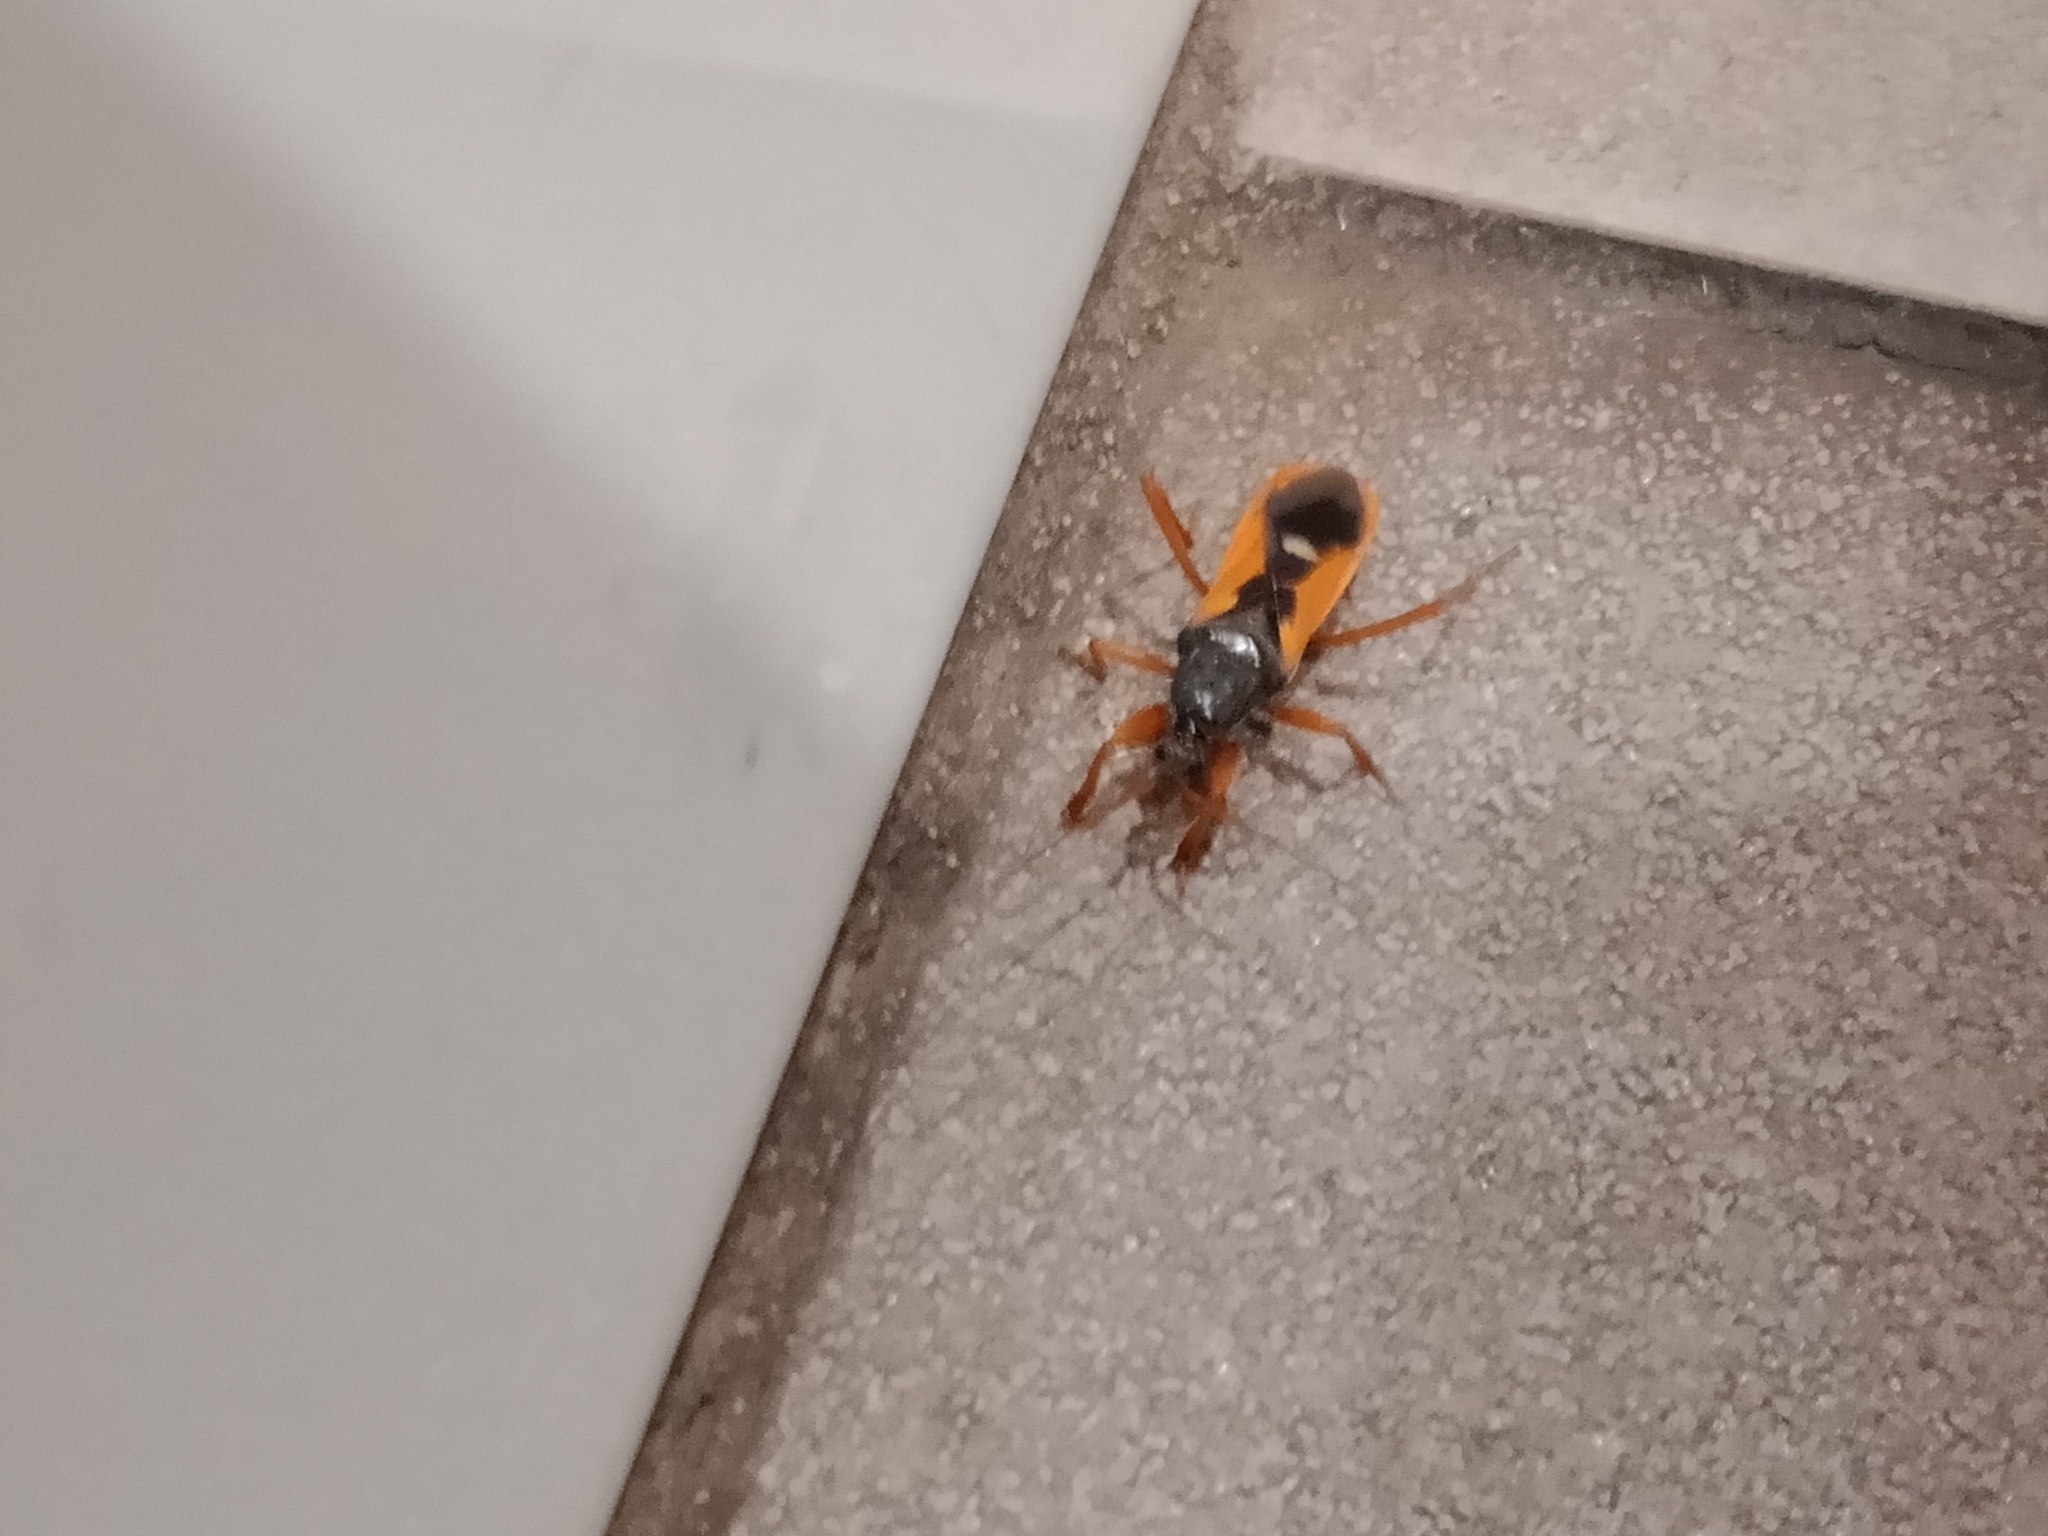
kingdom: Animalia
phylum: Arthropoda
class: Insecta
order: Hemiptera
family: Reduviidae
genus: Ectomocoris
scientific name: Ectomocoris truculentus
